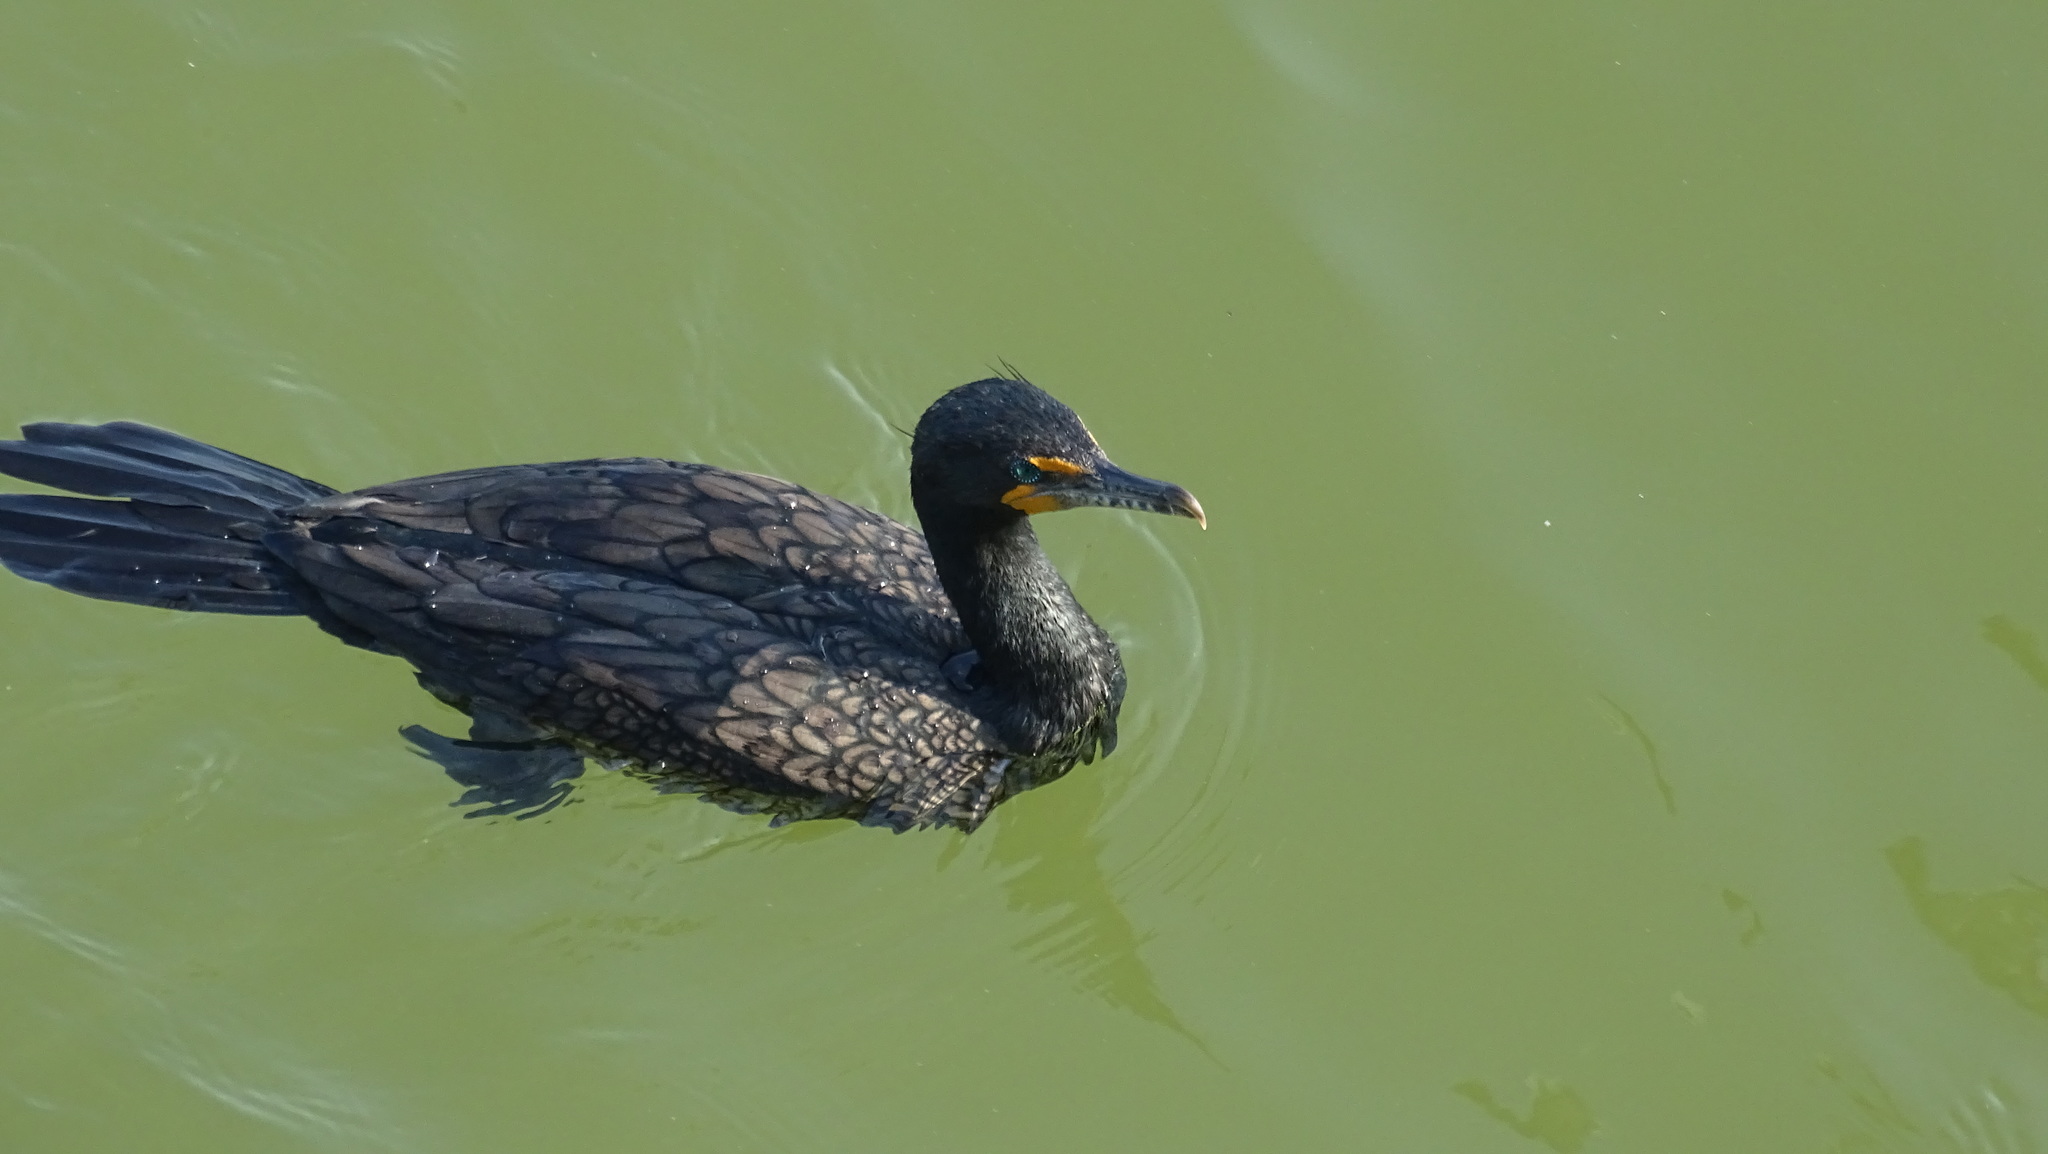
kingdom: Animalia
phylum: Chordata
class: Aves
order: Suliformes
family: Phalacrocoracidae
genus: Phalacrocorax
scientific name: Phalacrocorax auritus
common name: Double-crested cormorant
